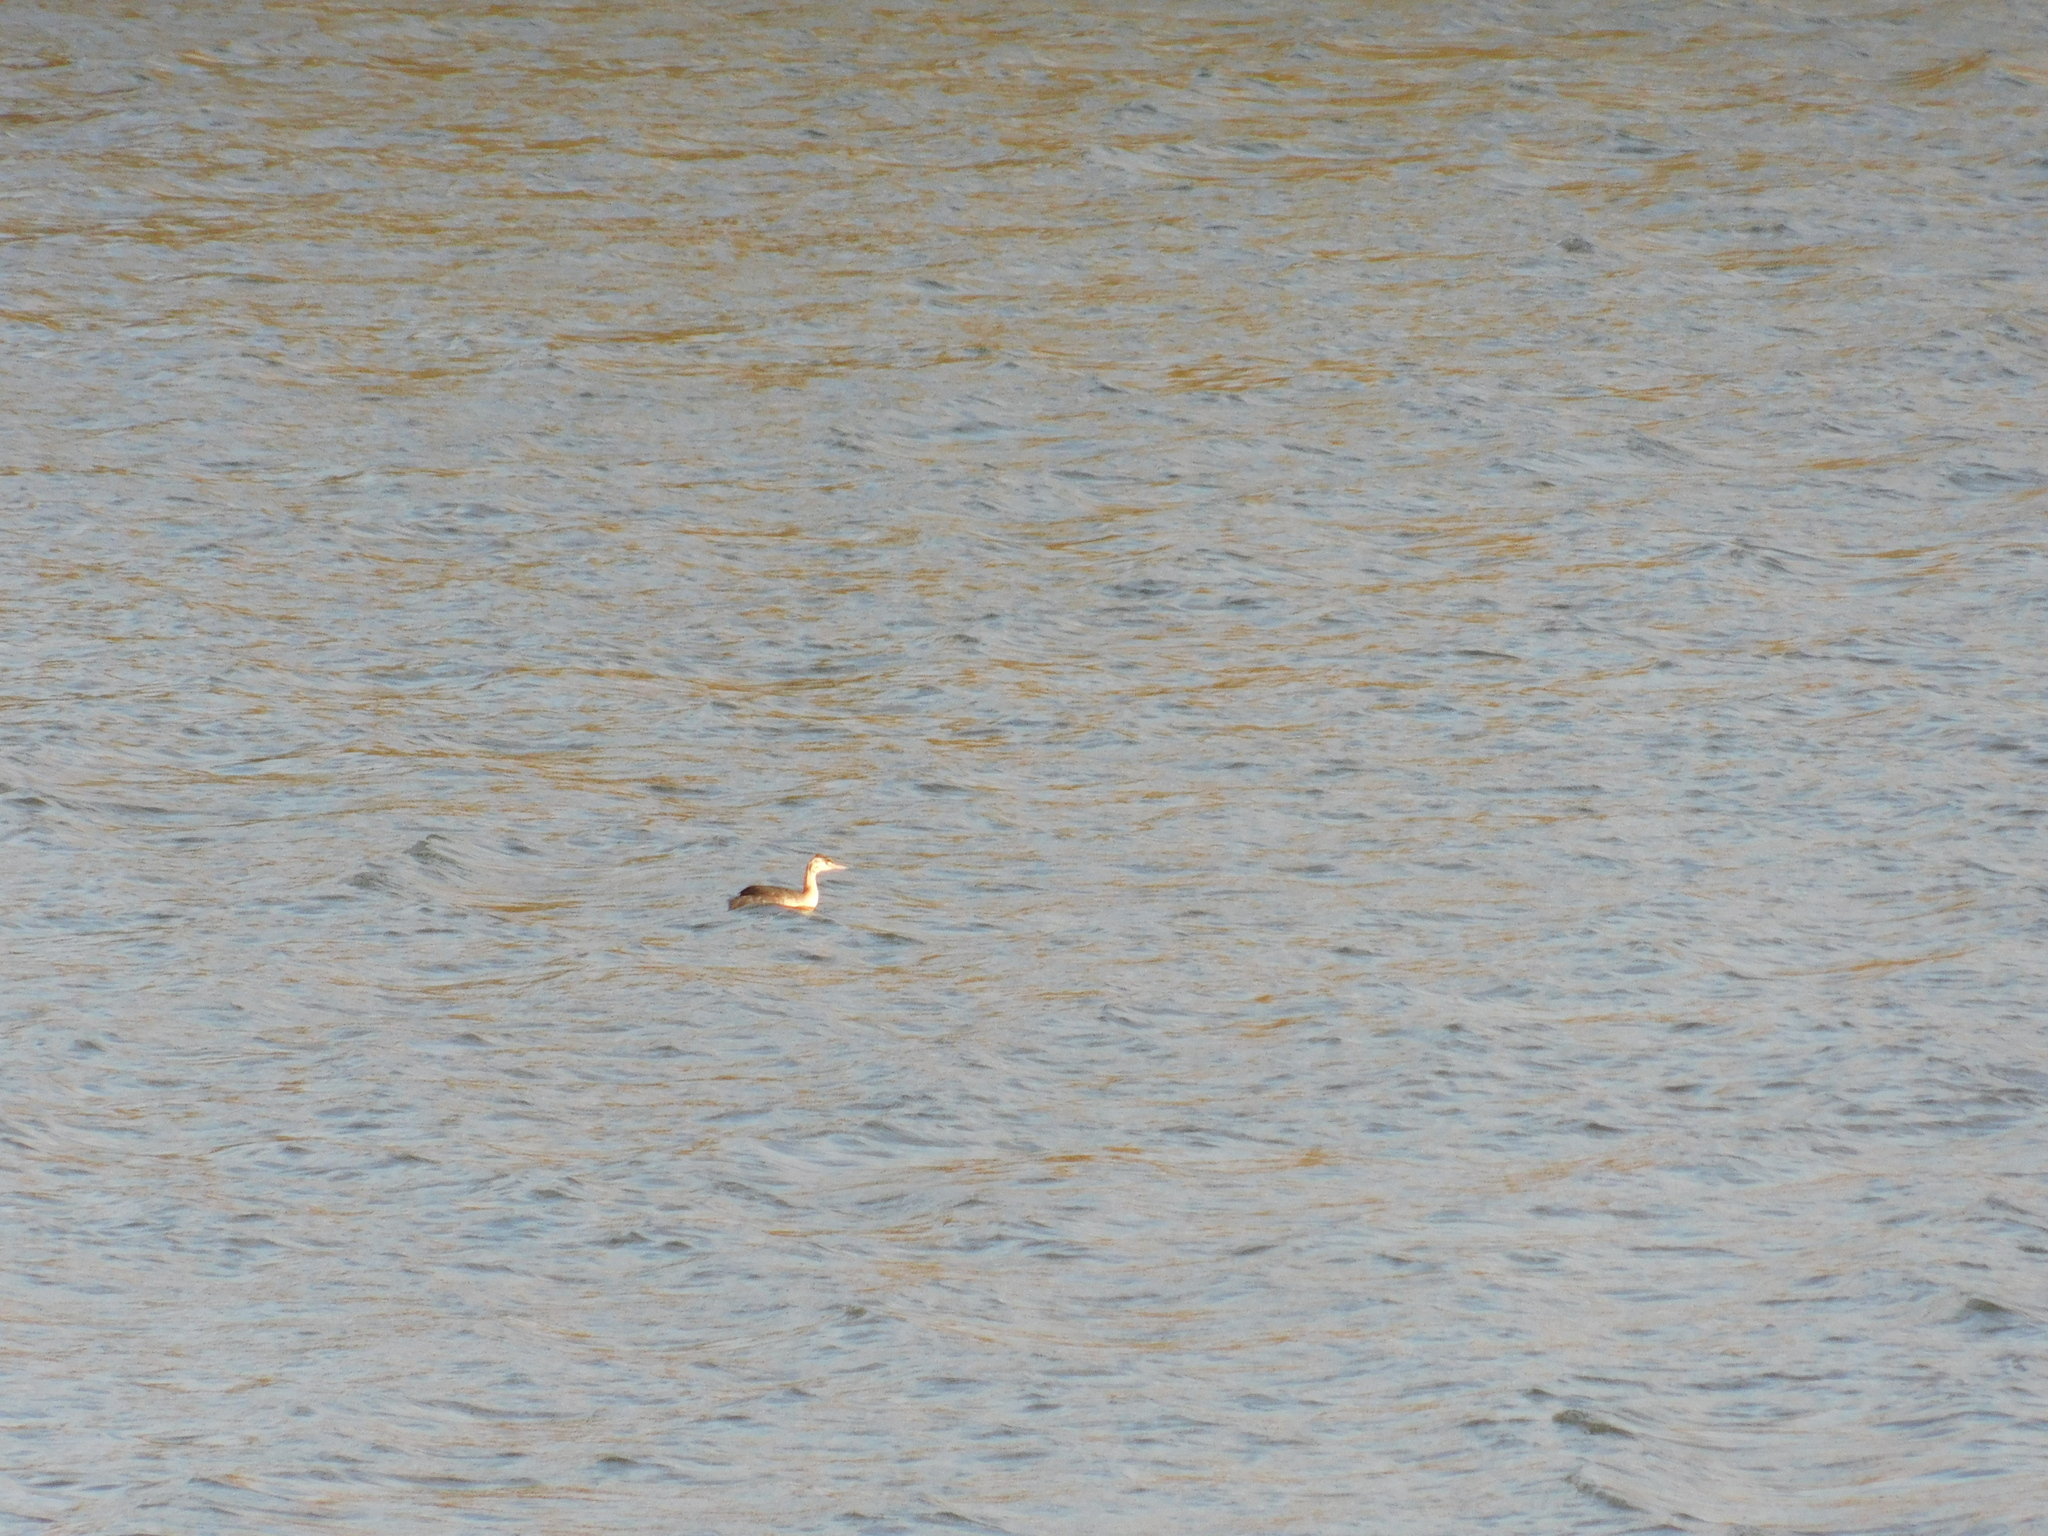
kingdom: Animalia
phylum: Chordata
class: Aves
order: Podicipediformes
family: Podicipedidae
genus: Podiceps
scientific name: Podiceps cristatus
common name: Great crested grebe
